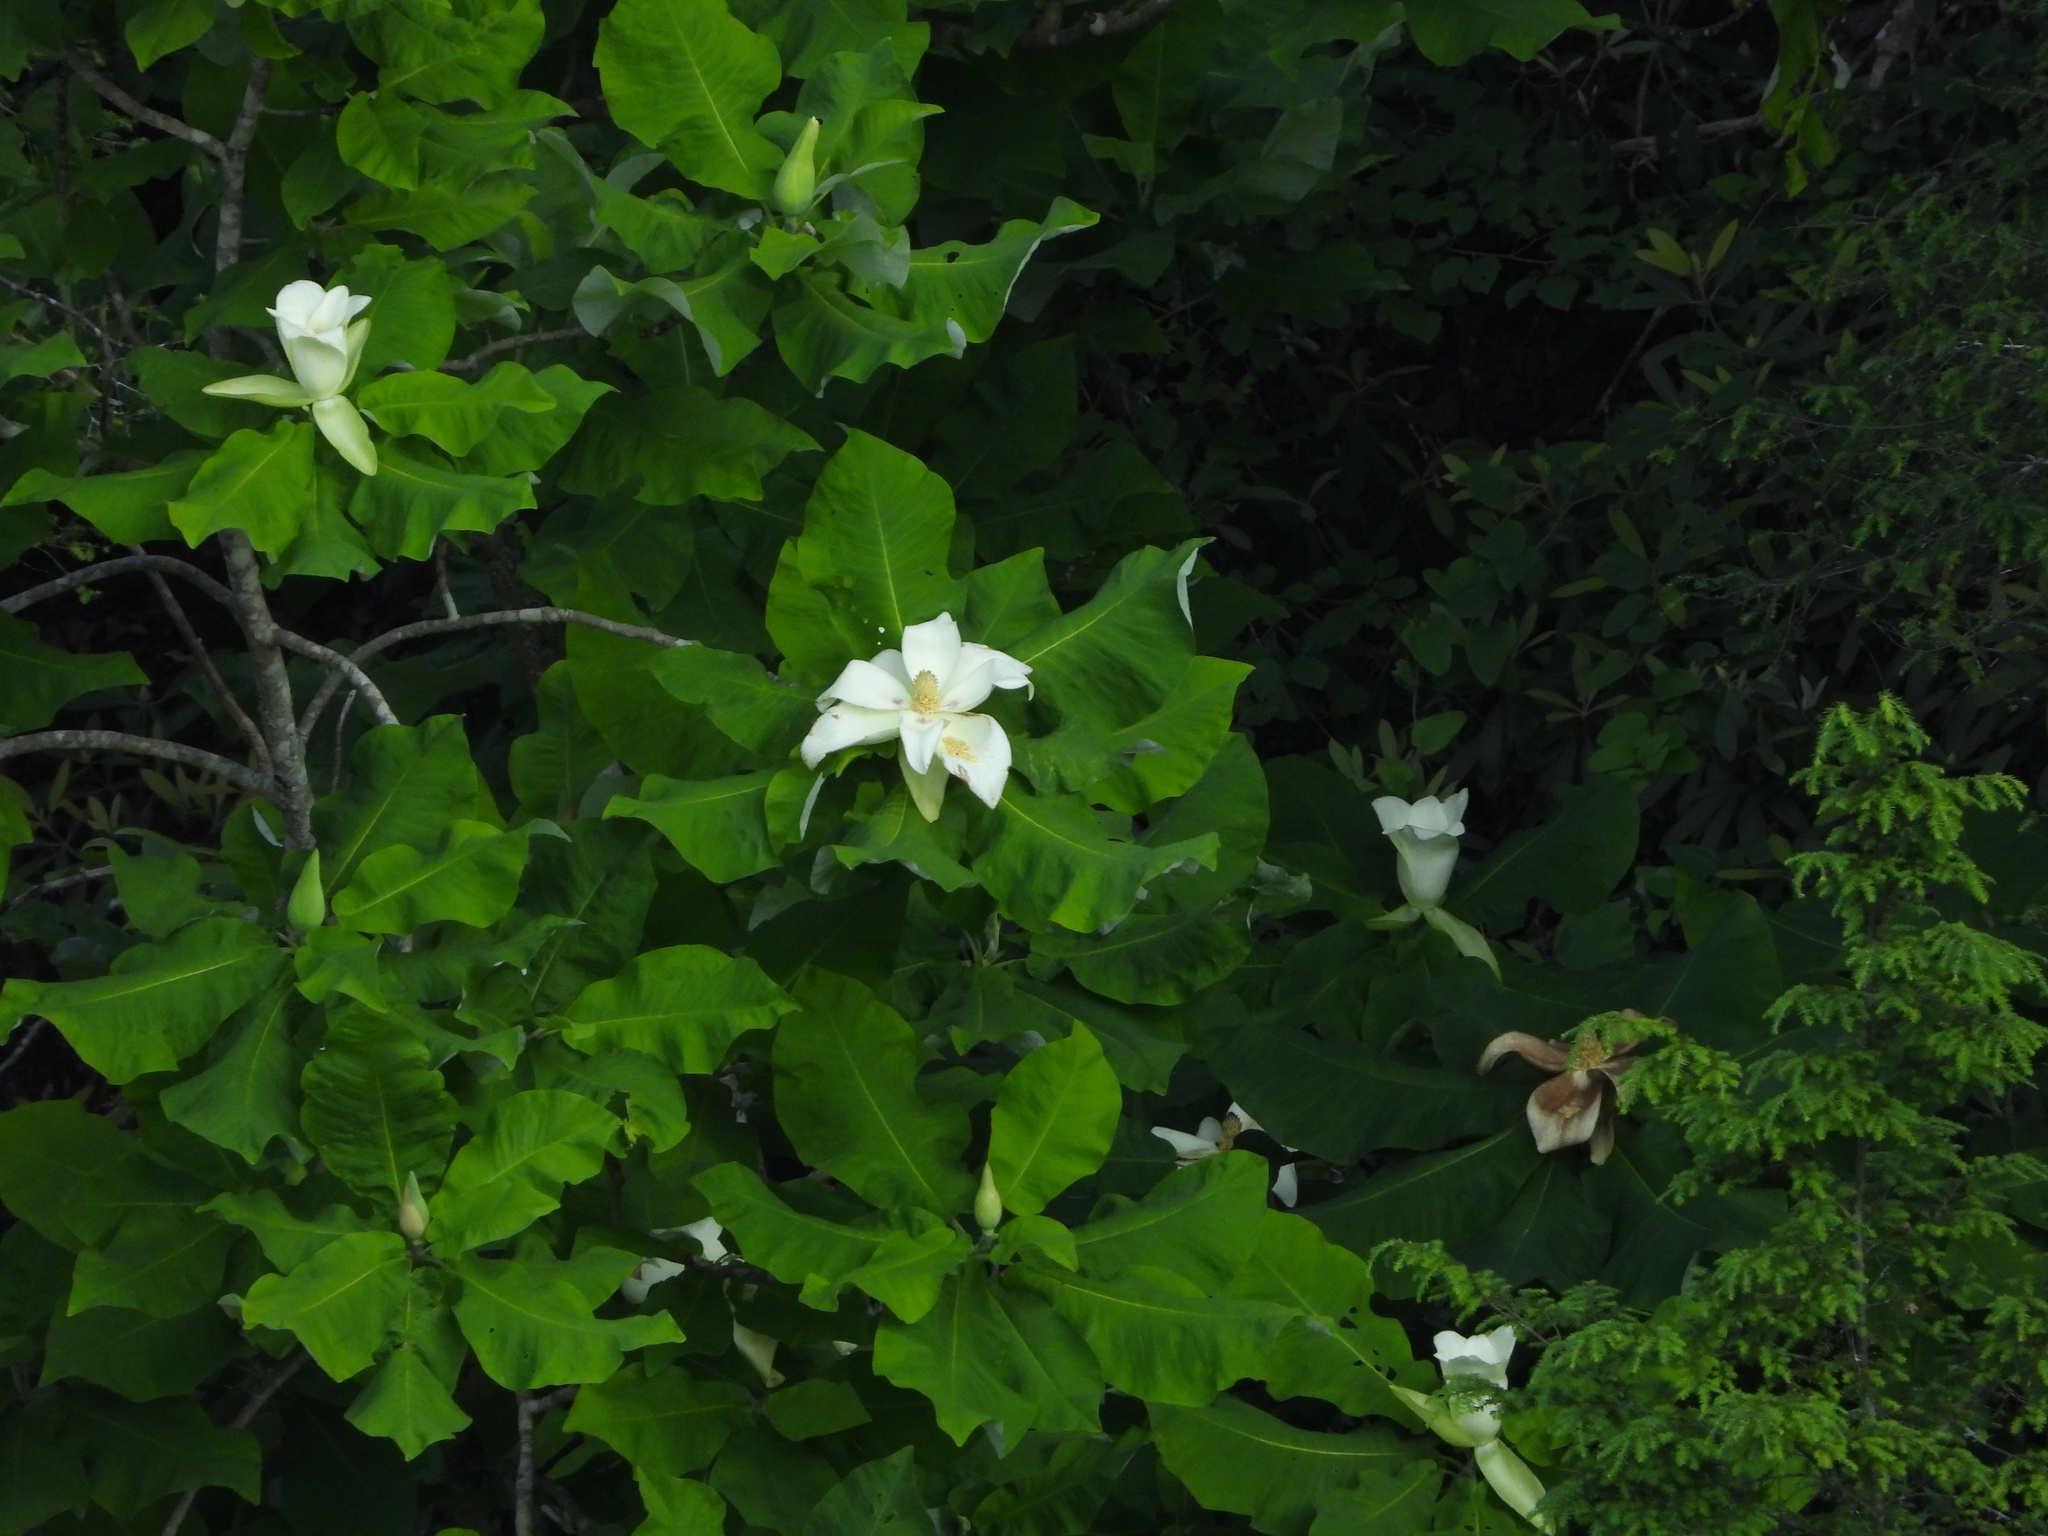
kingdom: Plantae
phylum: Tracheophyta
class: Magnoliopsida
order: Magnoliales
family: Magnoliaceae
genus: Magnolia
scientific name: Magnolia macrophylla
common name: Big-leaf magnolia
